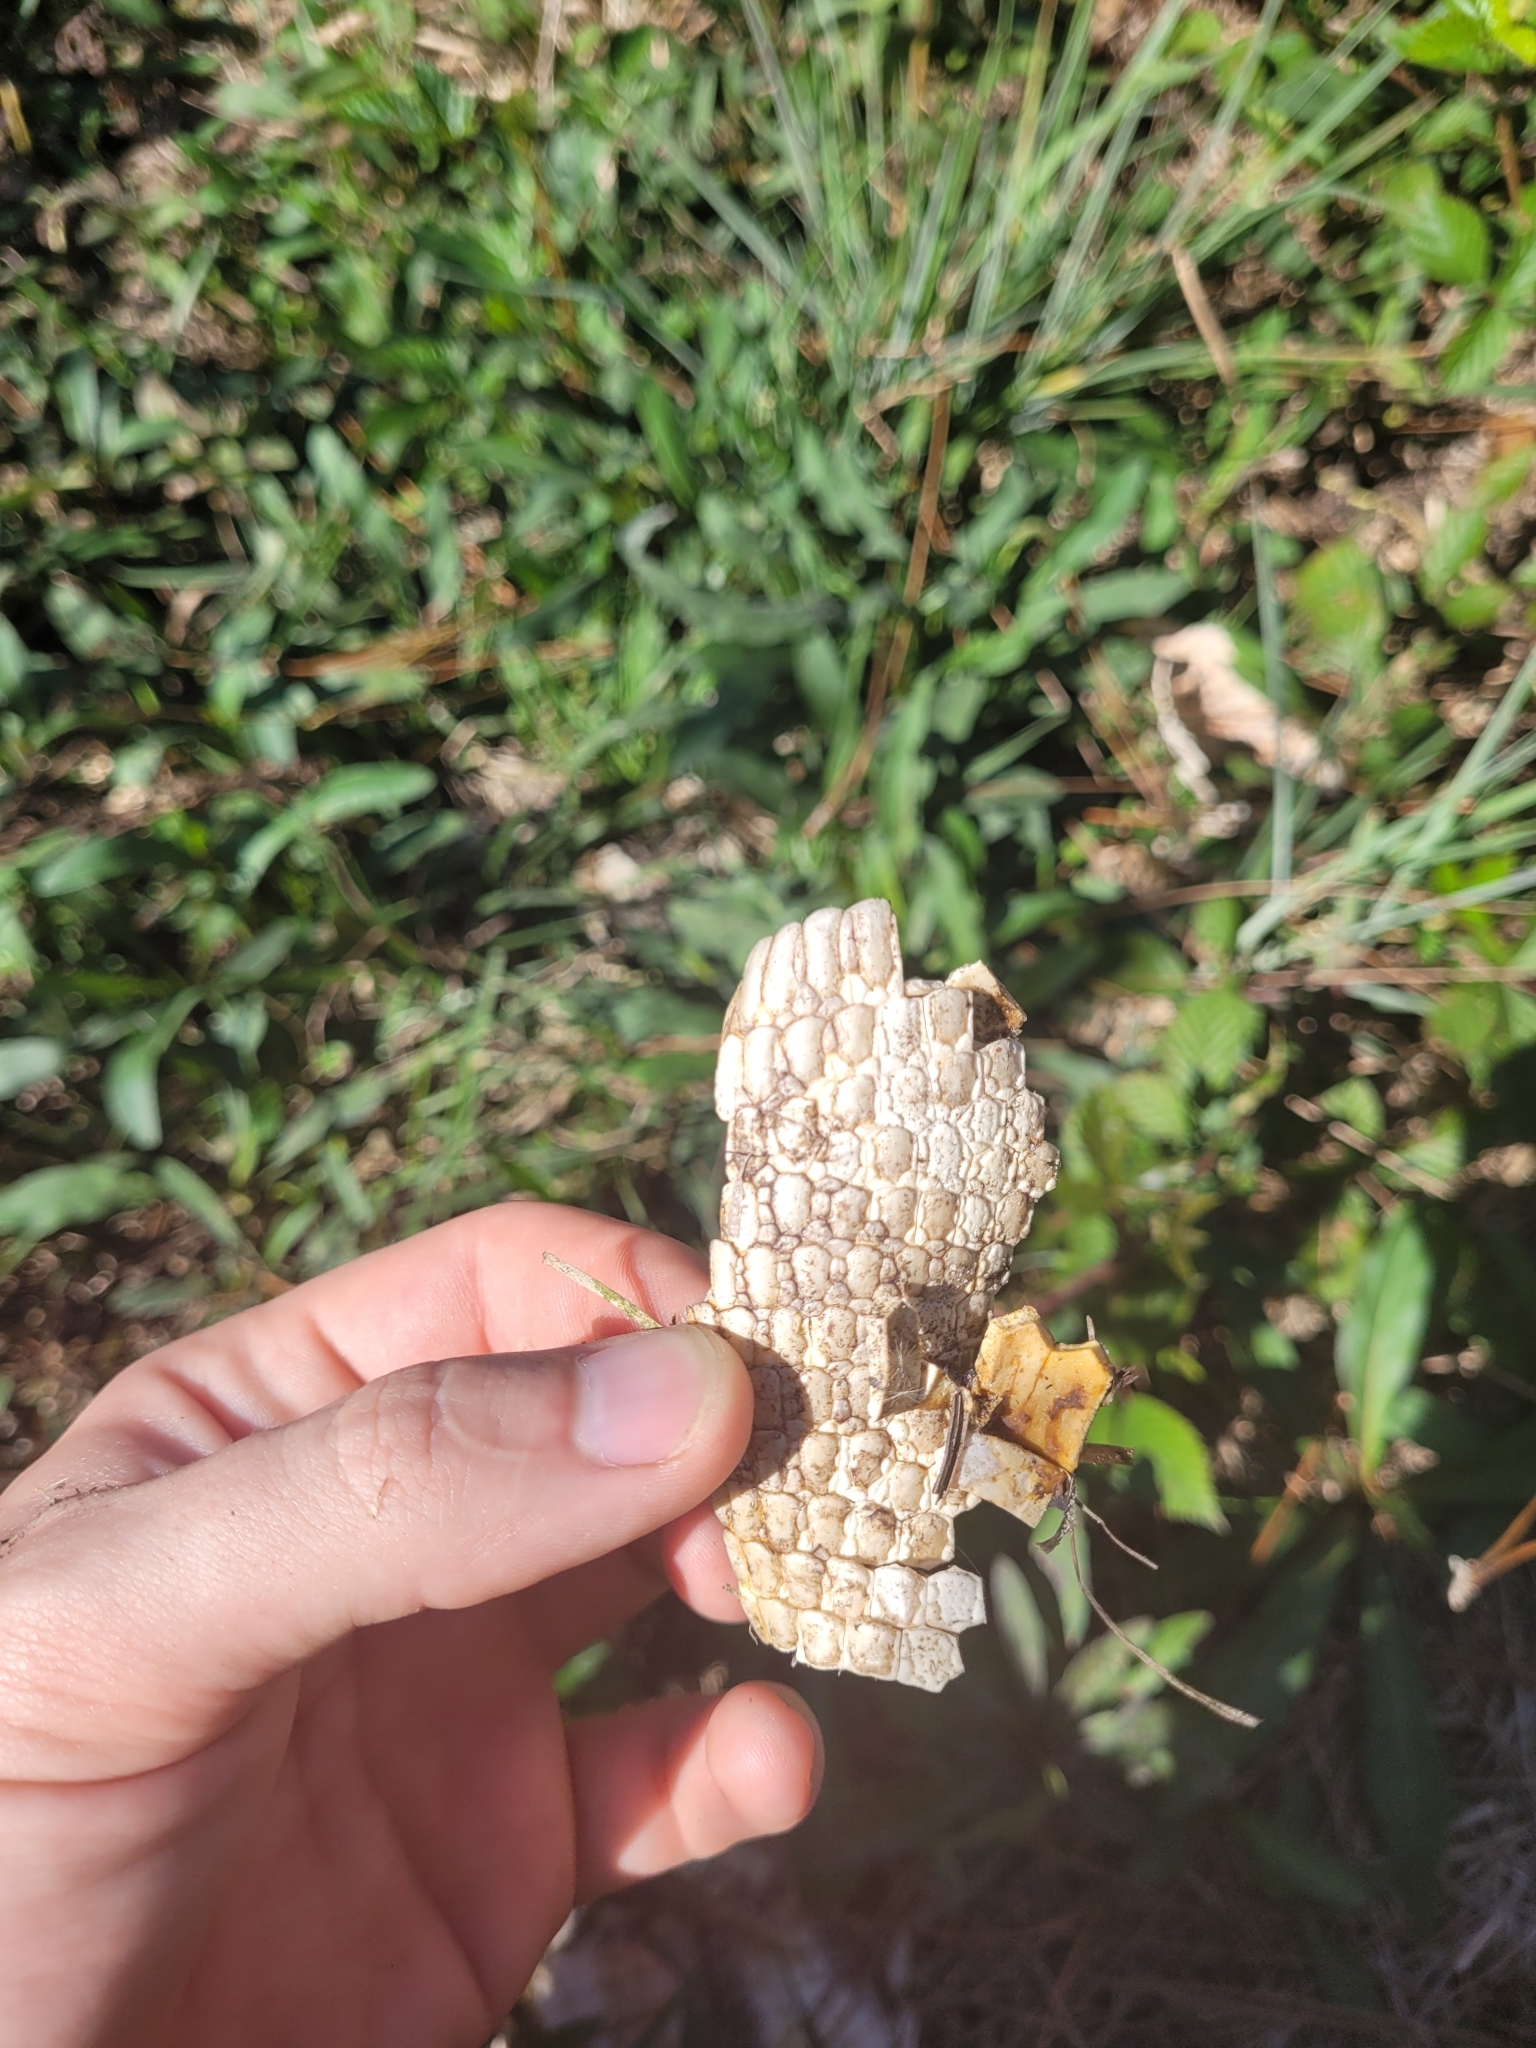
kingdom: Animalia
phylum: Chordata
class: Mammalia
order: Cingulata
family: Dasypodidae
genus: Dasypus
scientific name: Dasypus novemcinctus
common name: Nine-banded armadillo
